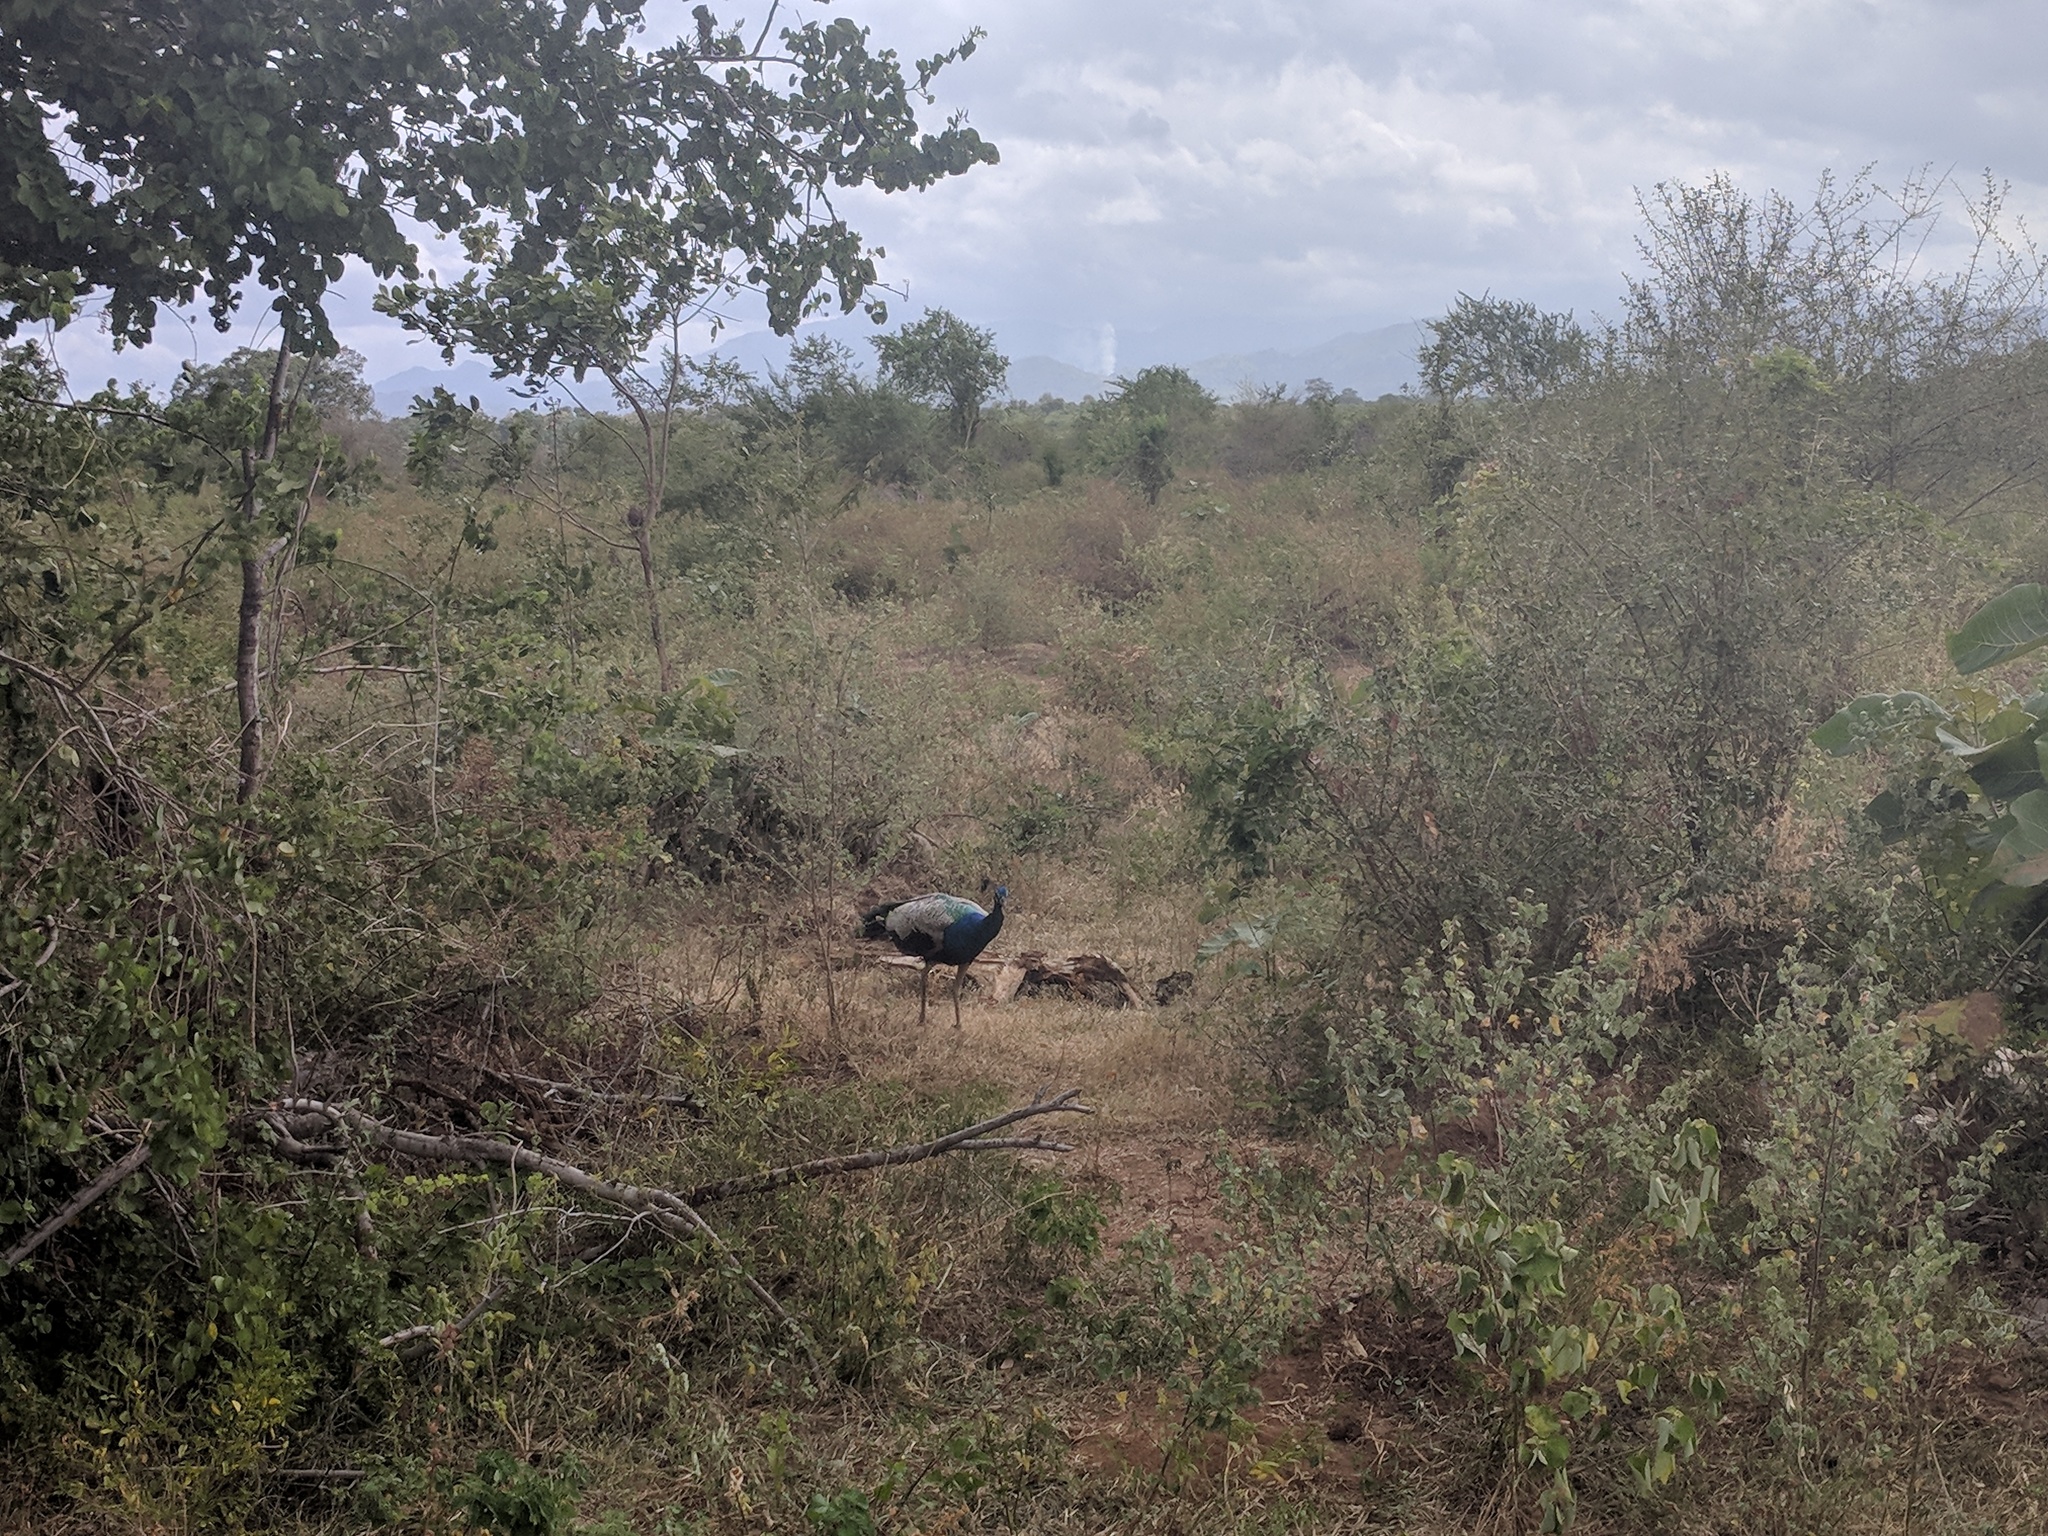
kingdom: Animalia
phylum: Chordata
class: Aves
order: Galliformes
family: Phasianidae
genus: Pavo
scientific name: Pavo cristatus
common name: Indian peafowl
